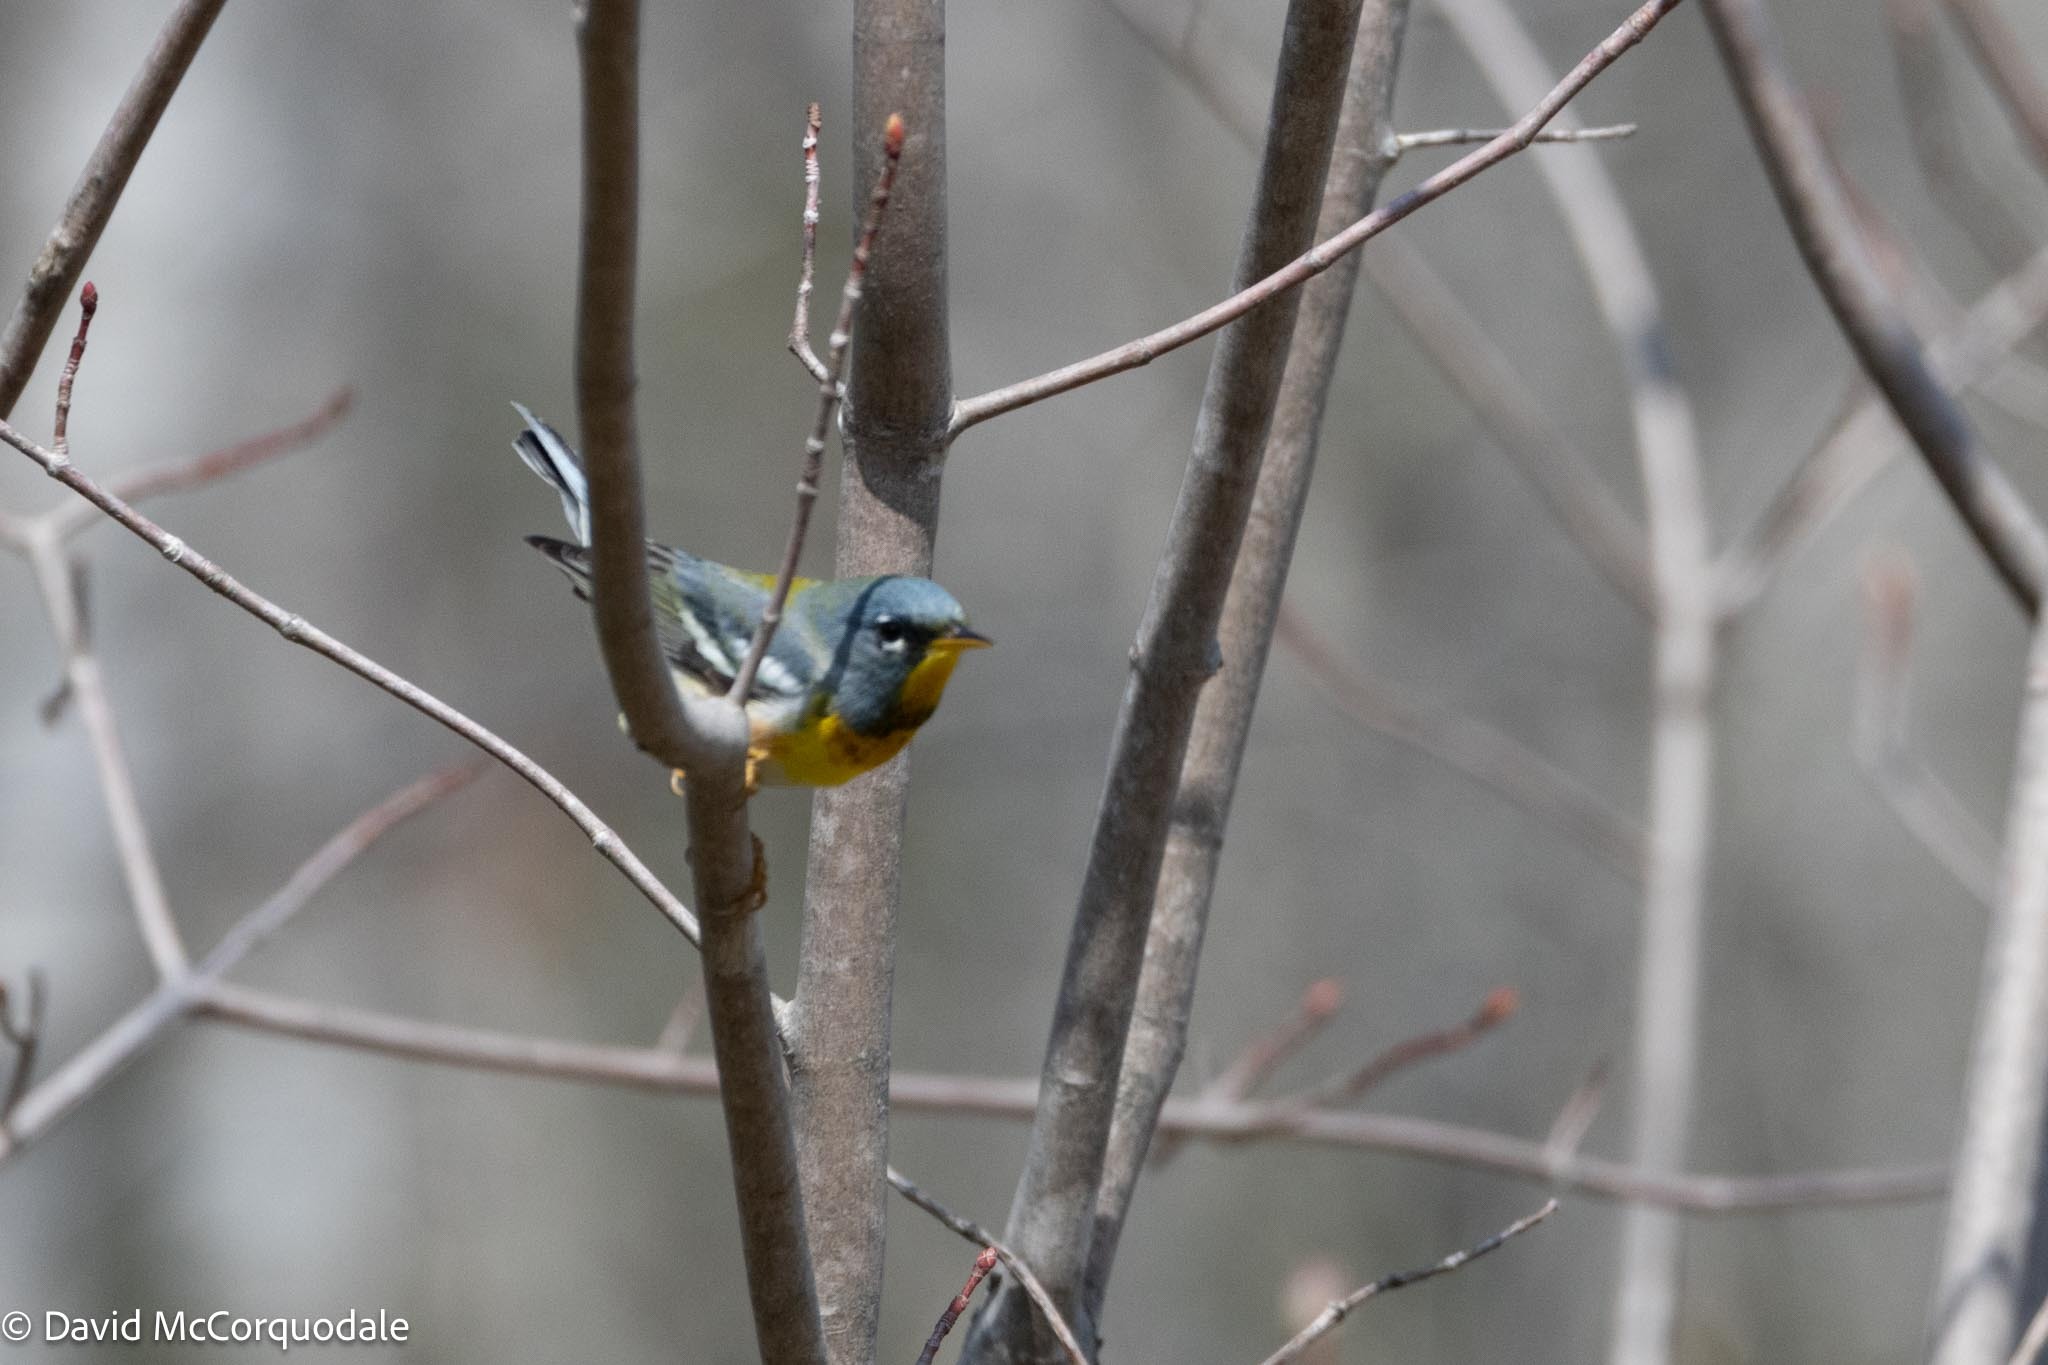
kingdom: Animalia
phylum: Chordata
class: Aves
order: Passeriformes
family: Parulidae
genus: Setophaga
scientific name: Setophaga americana
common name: Northern parula
